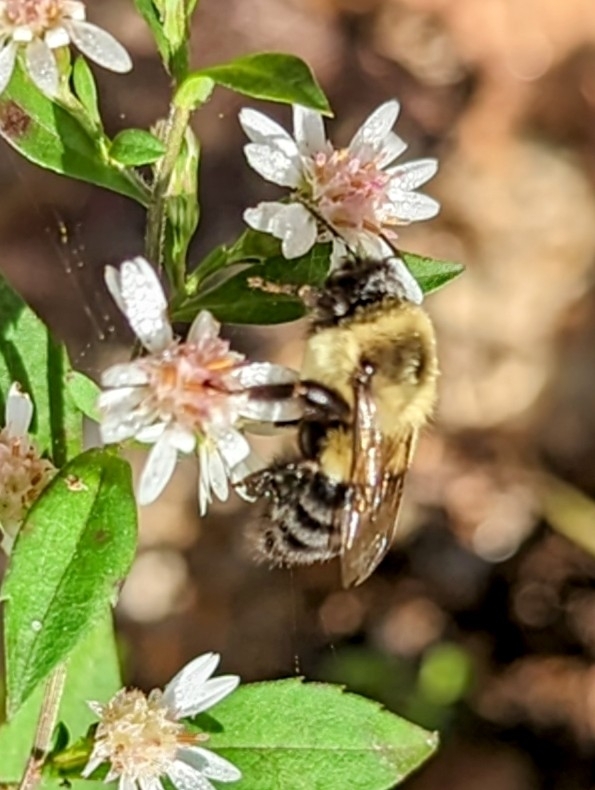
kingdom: Animalia
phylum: Arthropoda
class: Insecta
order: Hymenoptera
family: Apidae
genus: Bombus
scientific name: Bombus impatiens
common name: Common eastern bumble bee
